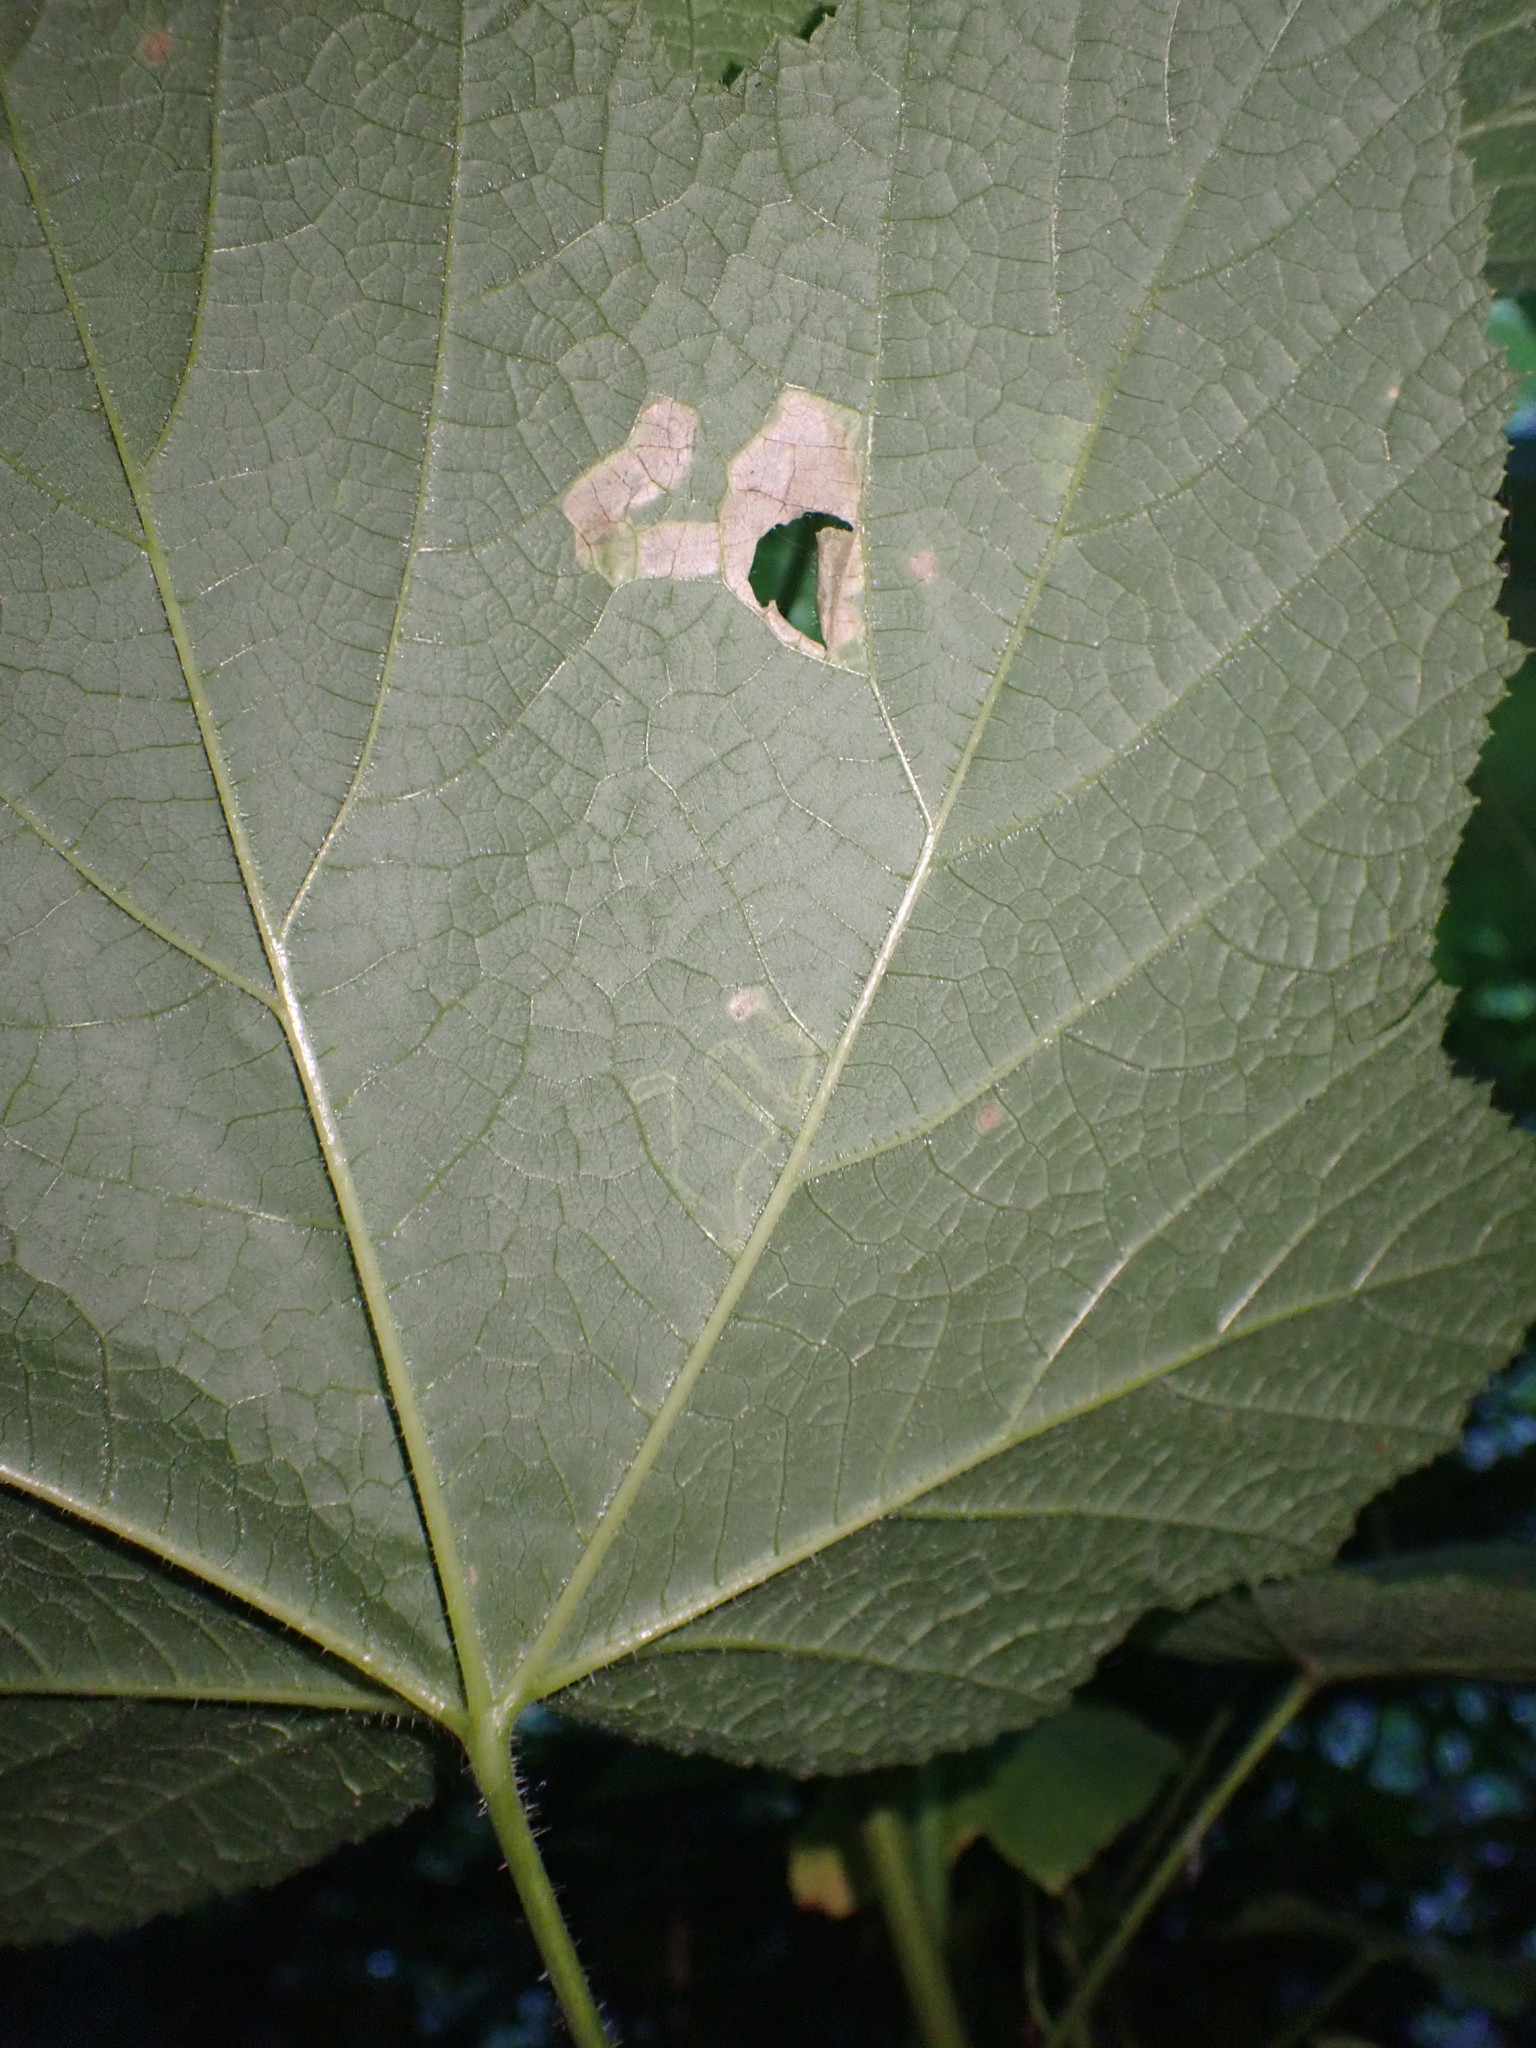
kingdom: Animalia
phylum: Arthropoda
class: Insecta
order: Diptera
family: Agromyzidae
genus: Agromyza
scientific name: Agromyza vockerothi
